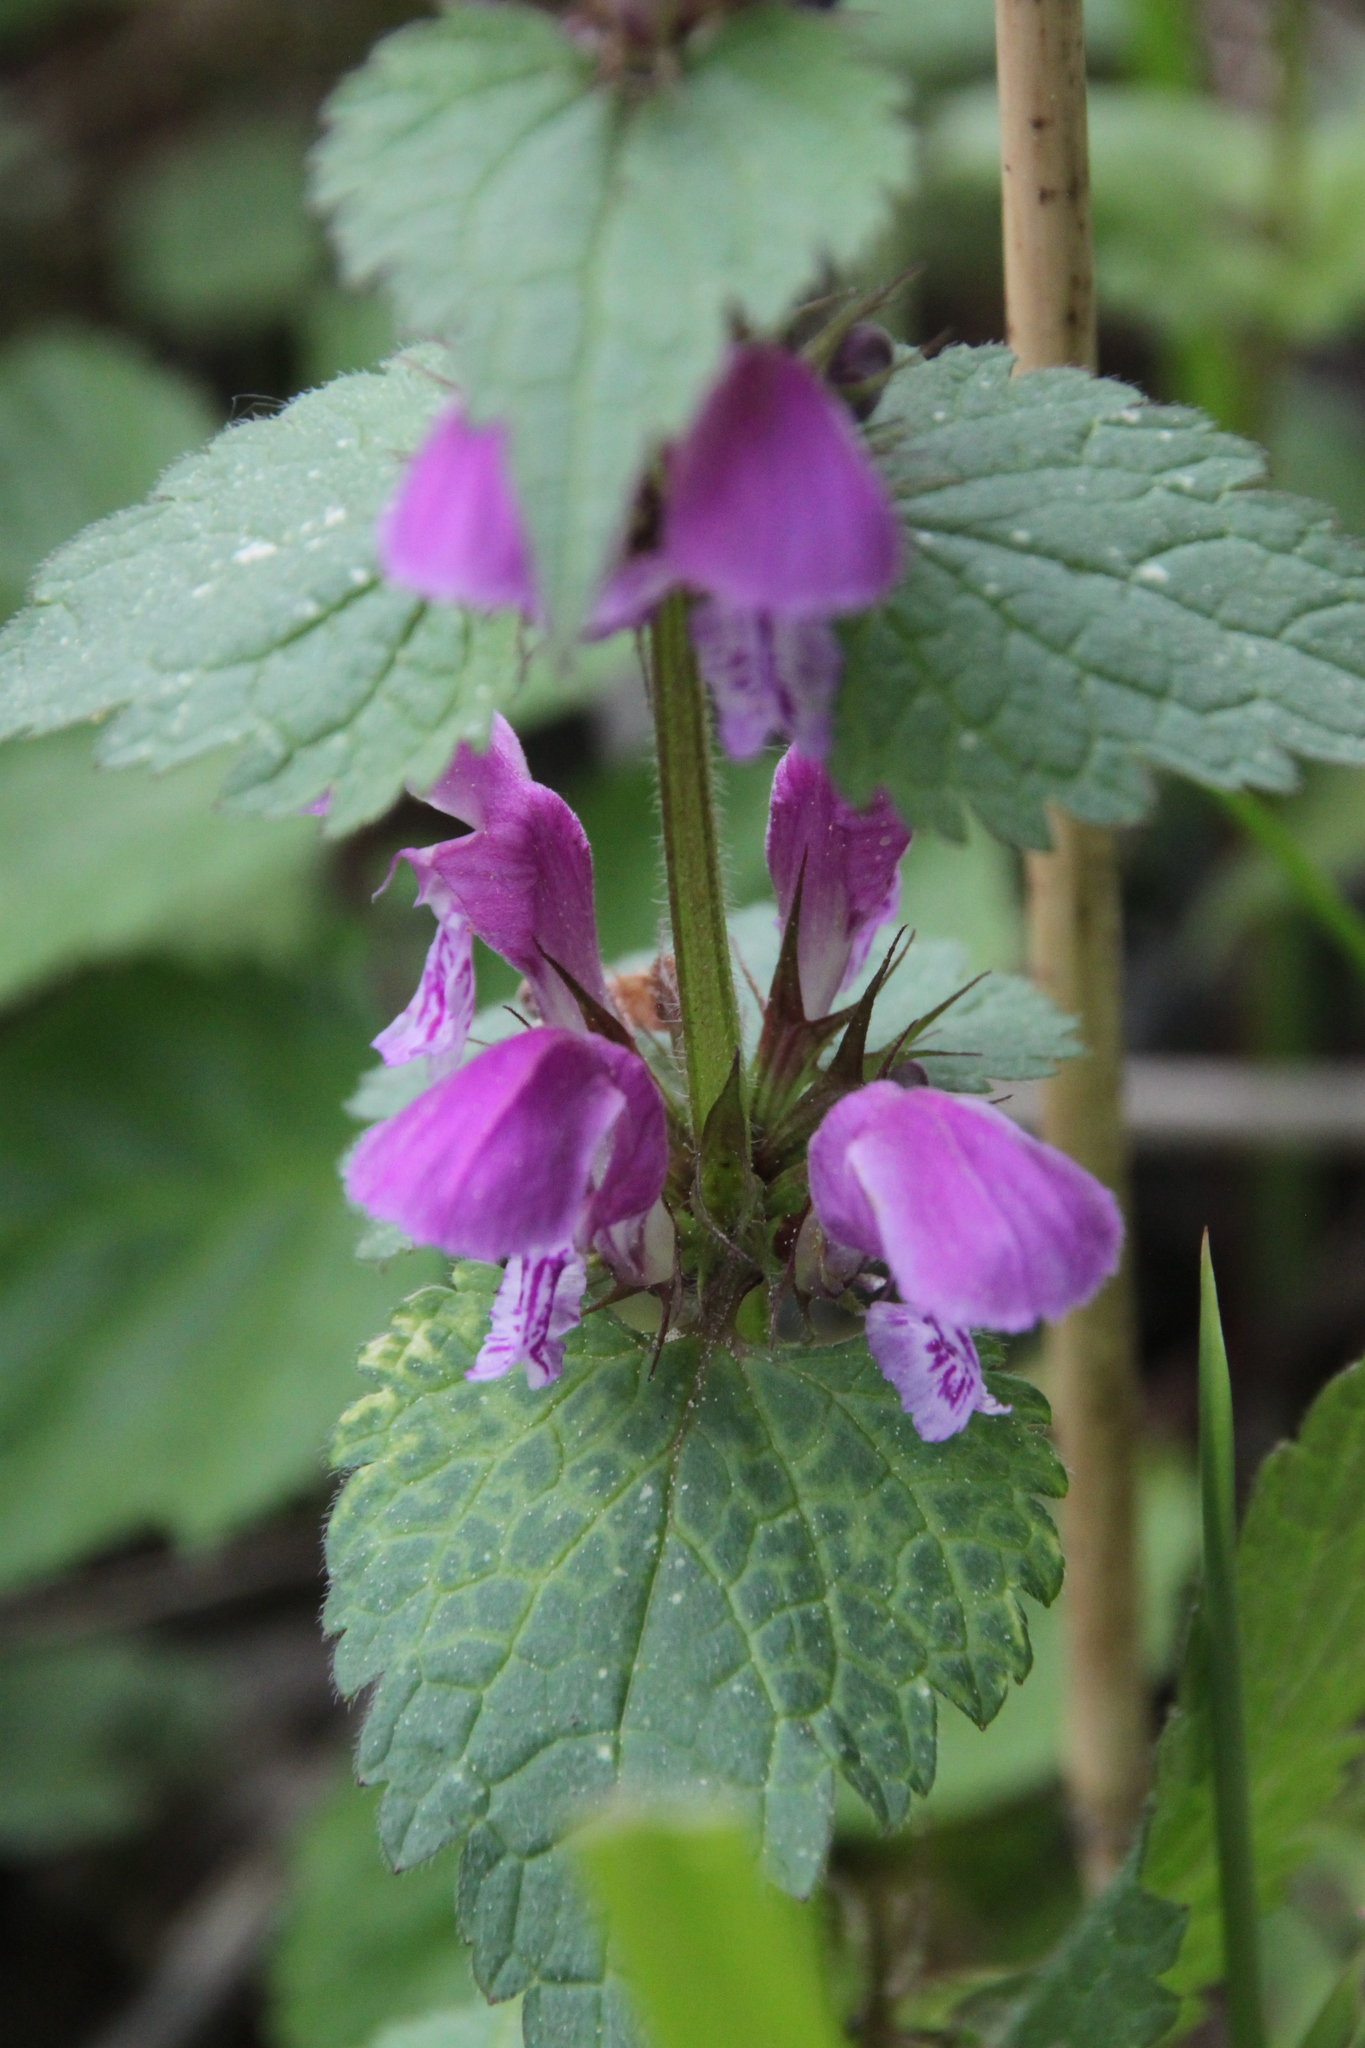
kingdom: Plantae
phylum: Tracheophyta
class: Magnoliopsida
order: Lamiales
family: Lamiaceae
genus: Lamium
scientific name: Lamium maculatum
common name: Spotted dead-nettle
